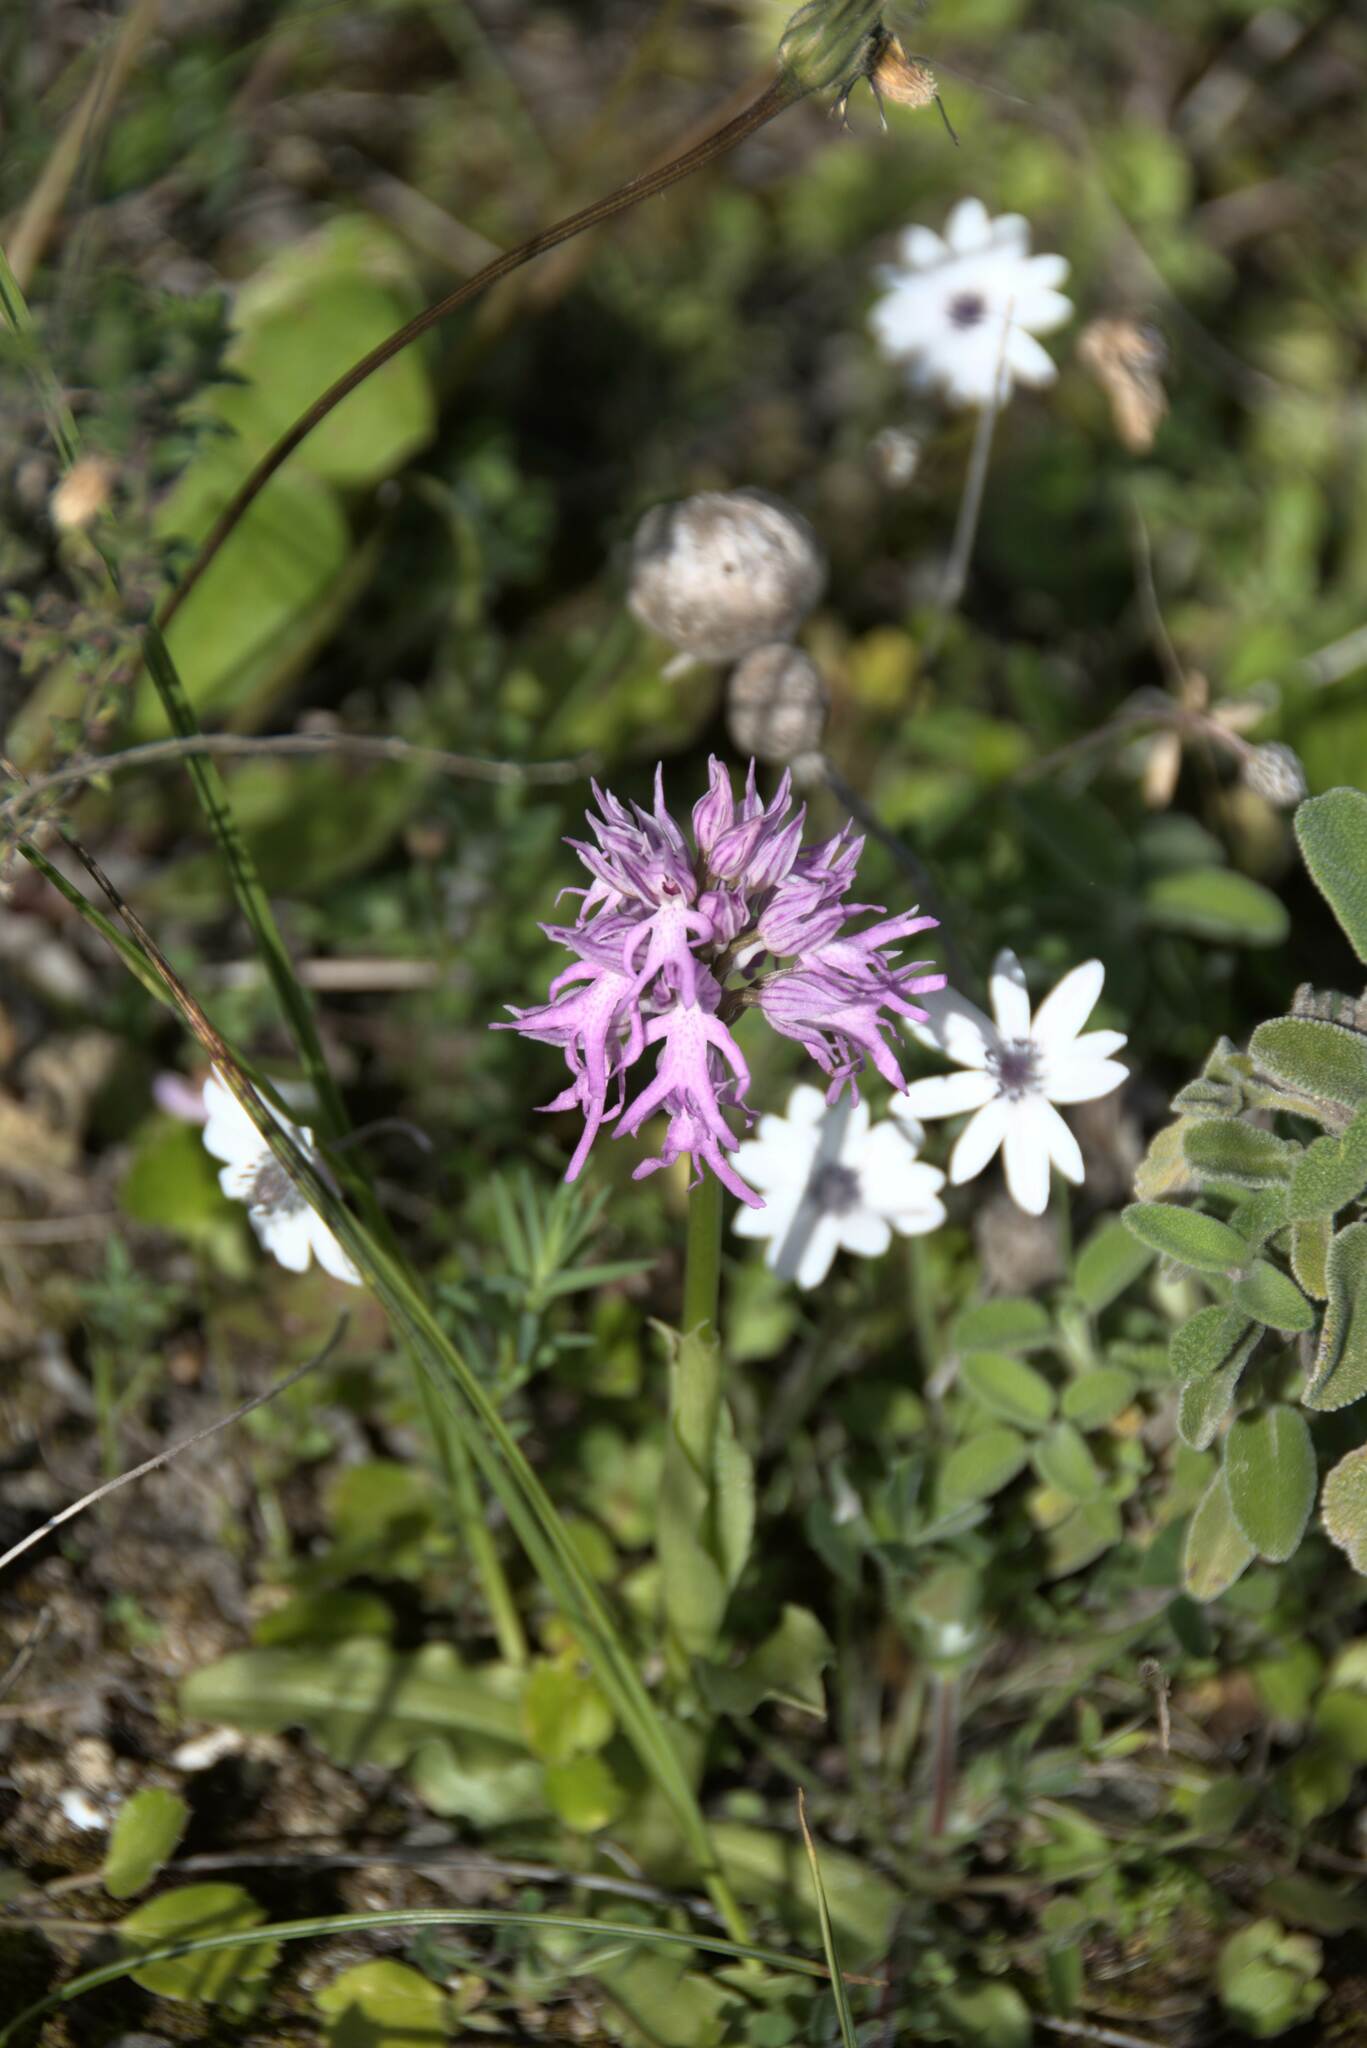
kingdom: Plantae
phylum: Tracheophyta
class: Liliopsida
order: Asparagales
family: Orchidaceae
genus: Orchis
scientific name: Orchis italica
